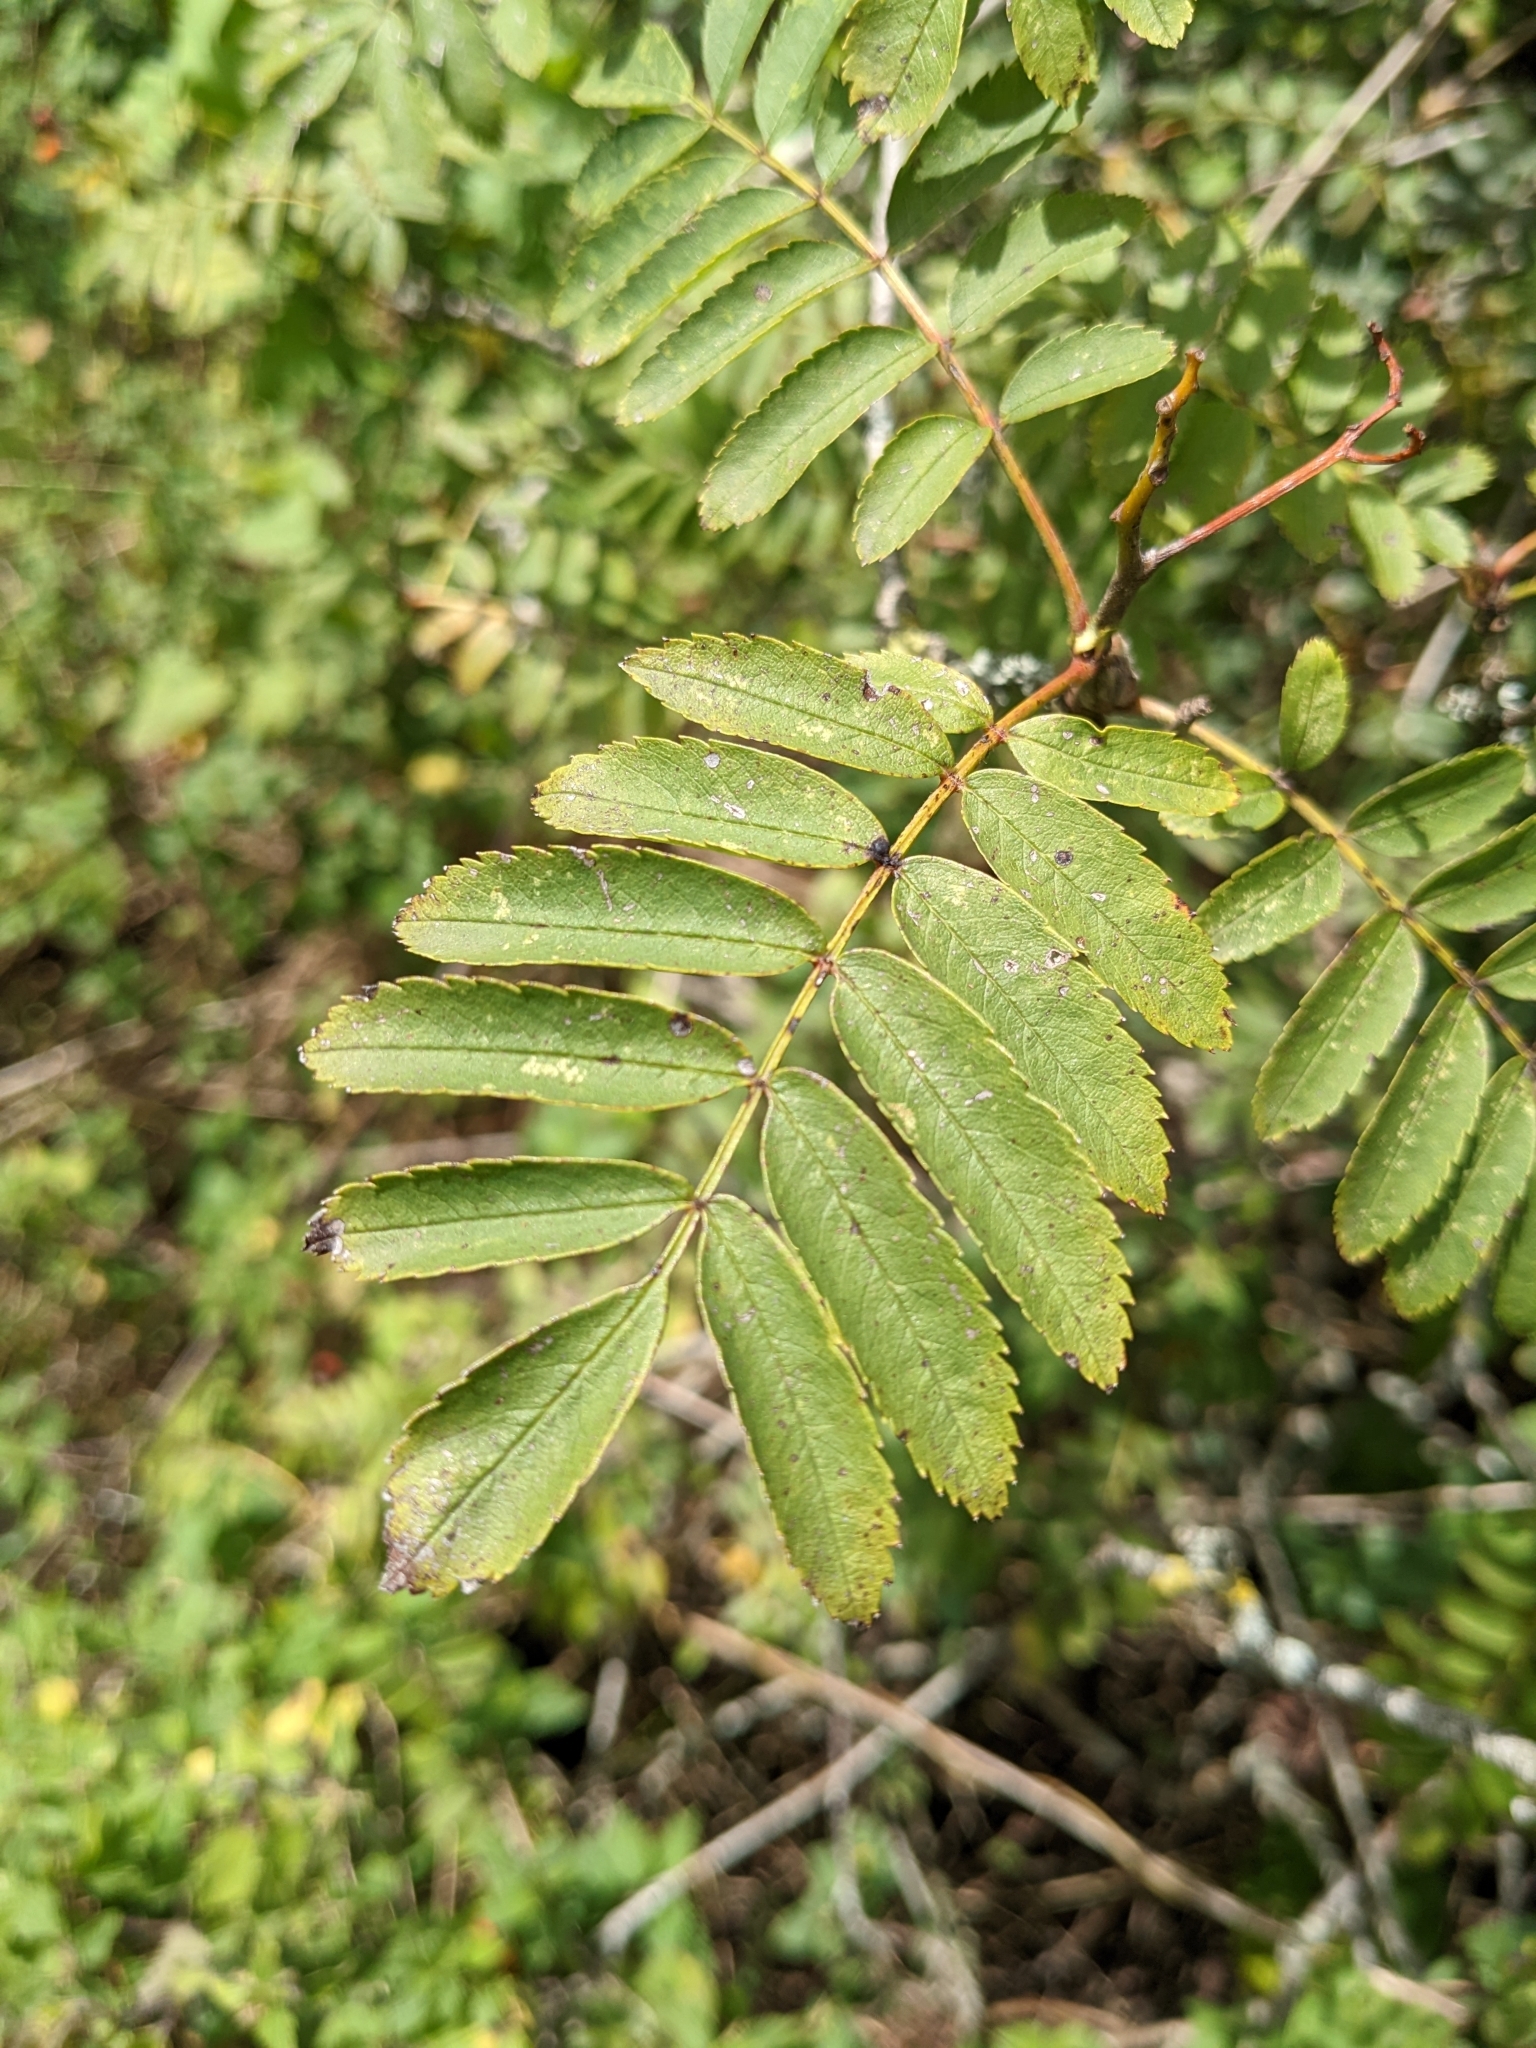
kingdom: Plantae
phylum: Tracheophyta
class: Magnoliopsida
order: Rosales
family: Rosaceae
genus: Sorbus
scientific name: Sorbus aucuparia
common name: Rowan
